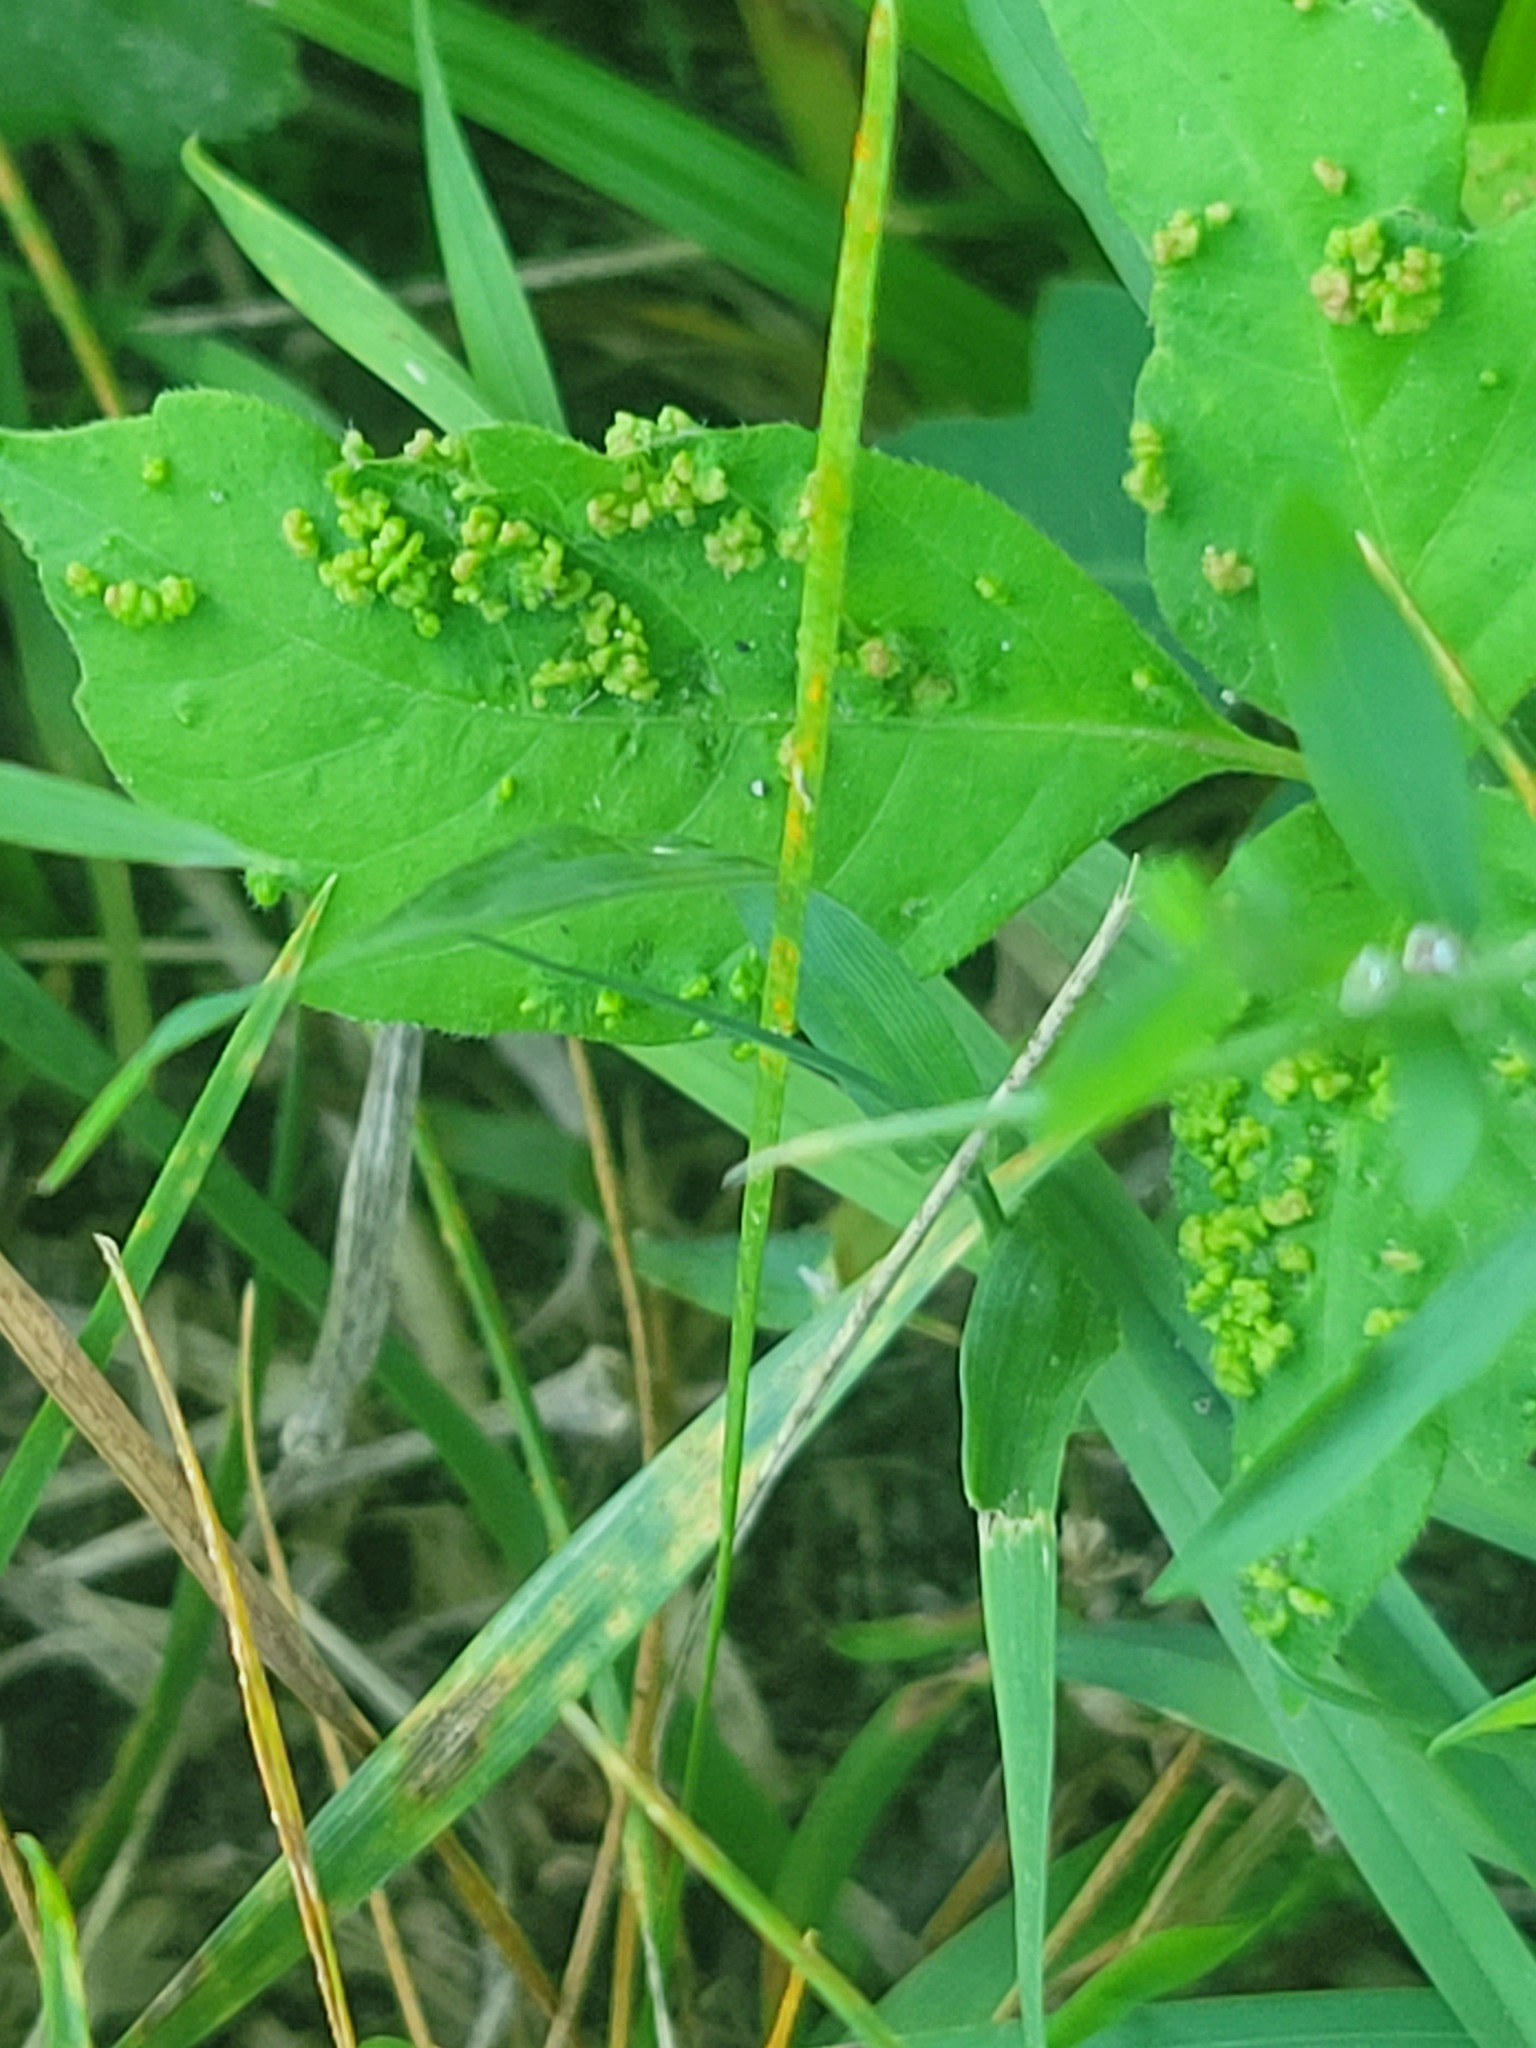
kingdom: Animalia
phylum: Arthropoda
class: Arachnida
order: Trombidiformes
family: Eriophyidae
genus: Aculops
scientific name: Aculops
